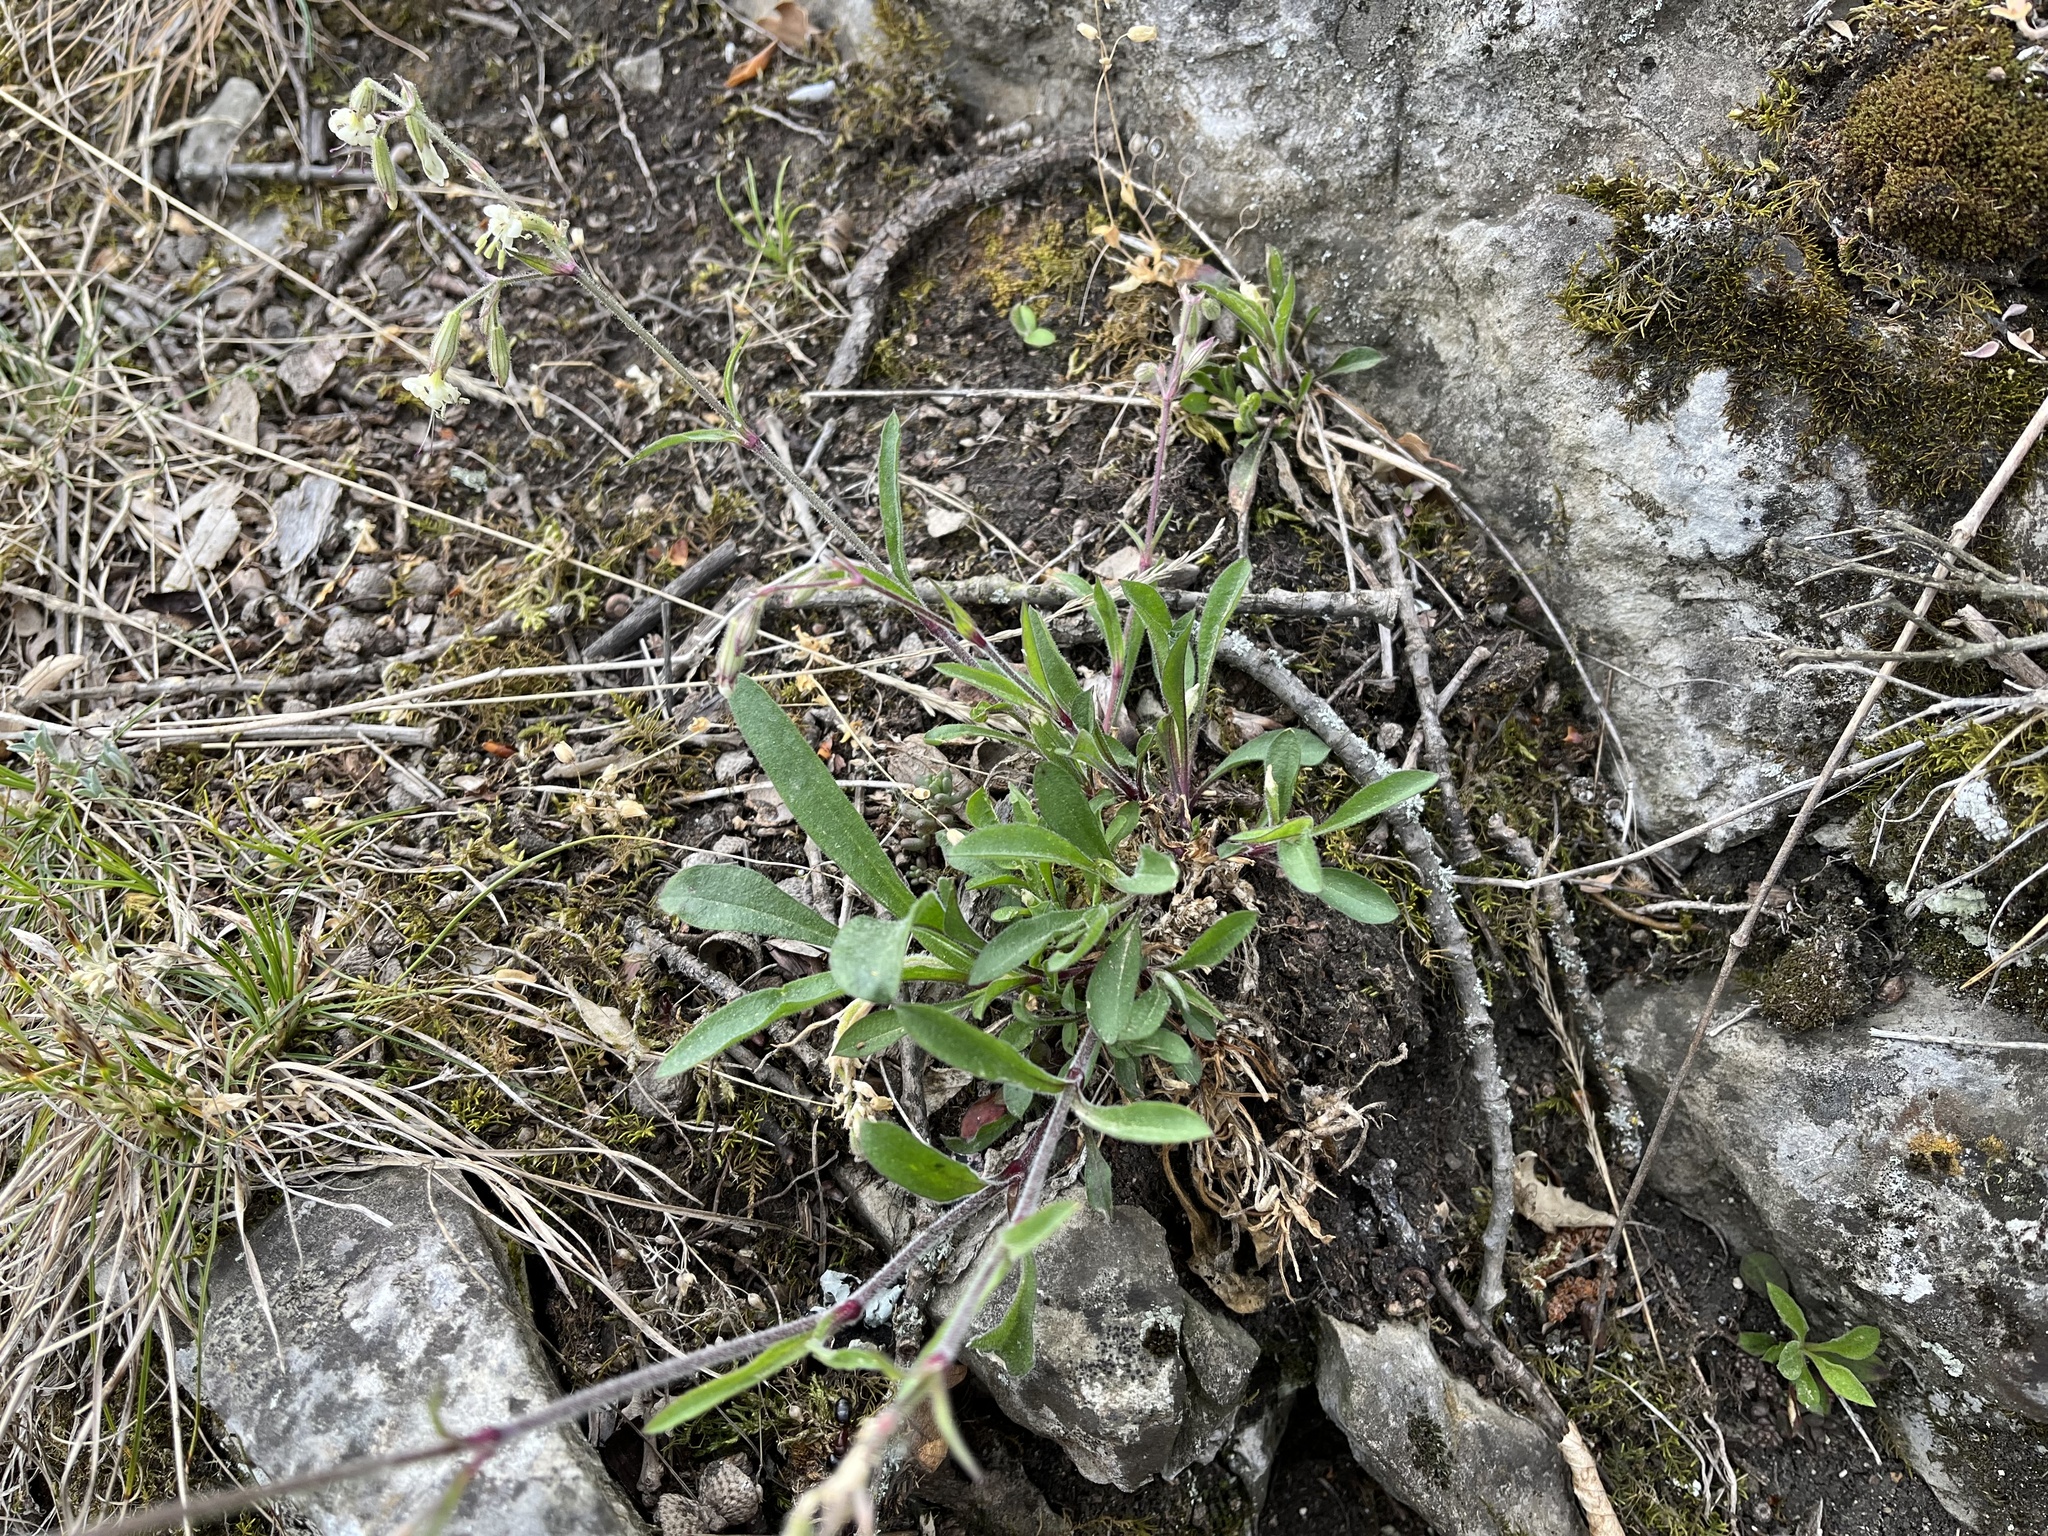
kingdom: Plantae
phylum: Tracheophyta
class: Magnoliopsida
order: Caryophyllales
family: Caryophyllaceae
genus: Silene
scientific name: Silene nutans
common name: Nottingham catchfly
